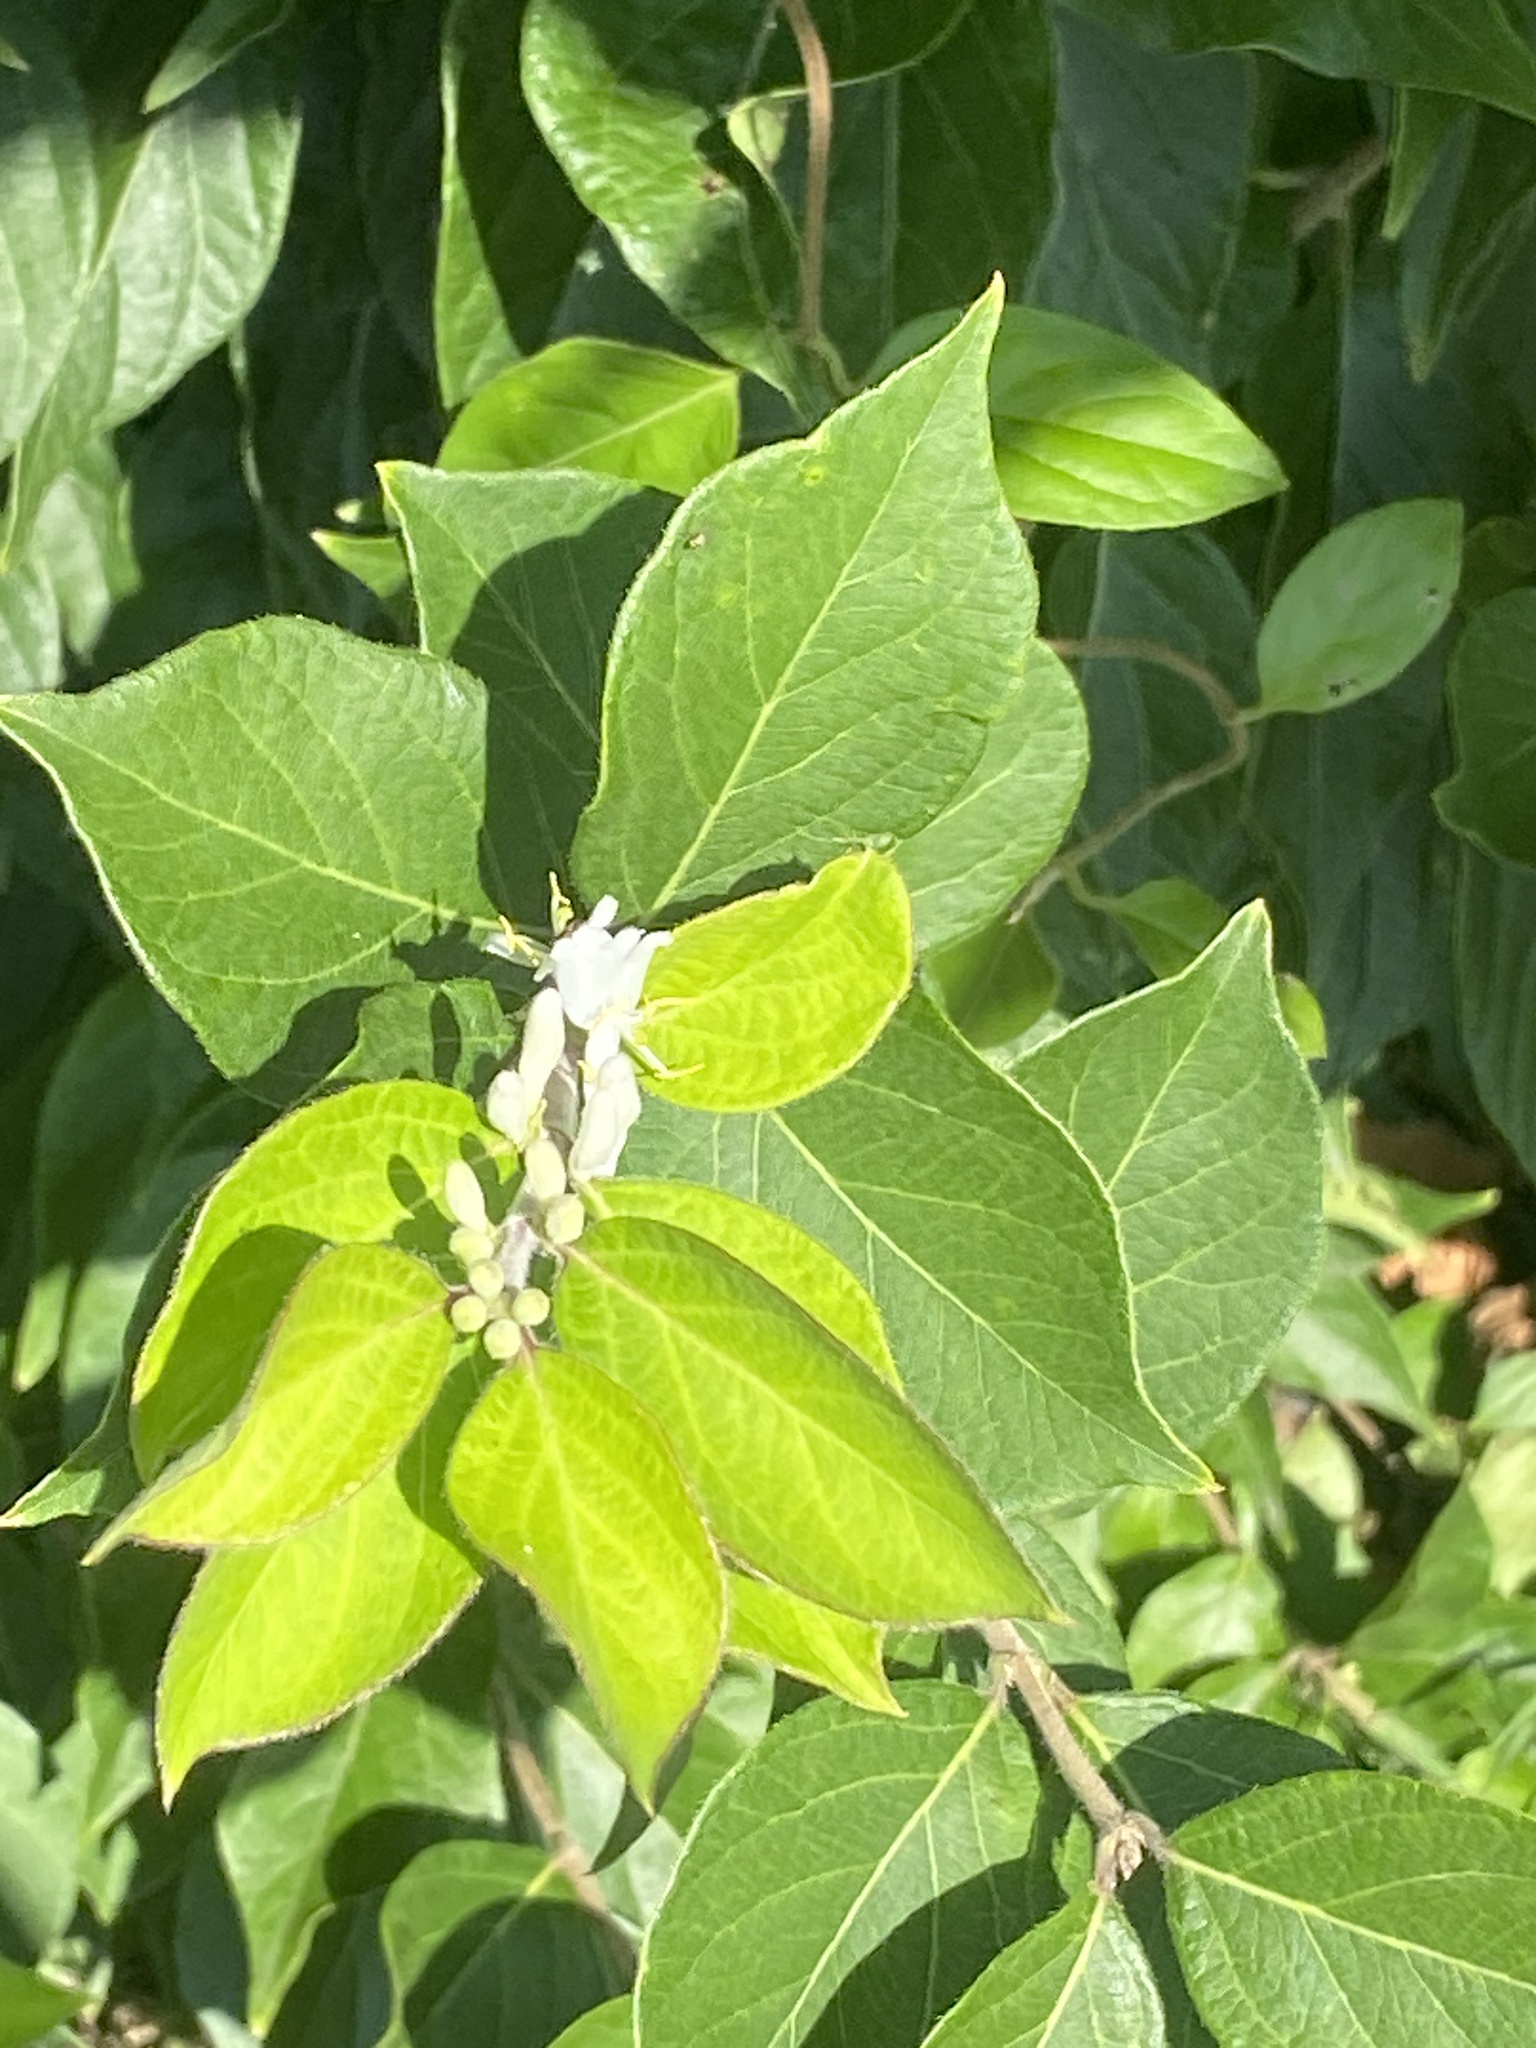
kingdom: Plantae
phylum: Tracheophyta
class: Magnoliopsida
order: Dipsacales
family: Caprifoliaceae
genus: Lonicera
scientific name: Lonicera maackii
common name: Amur honeysuckle
